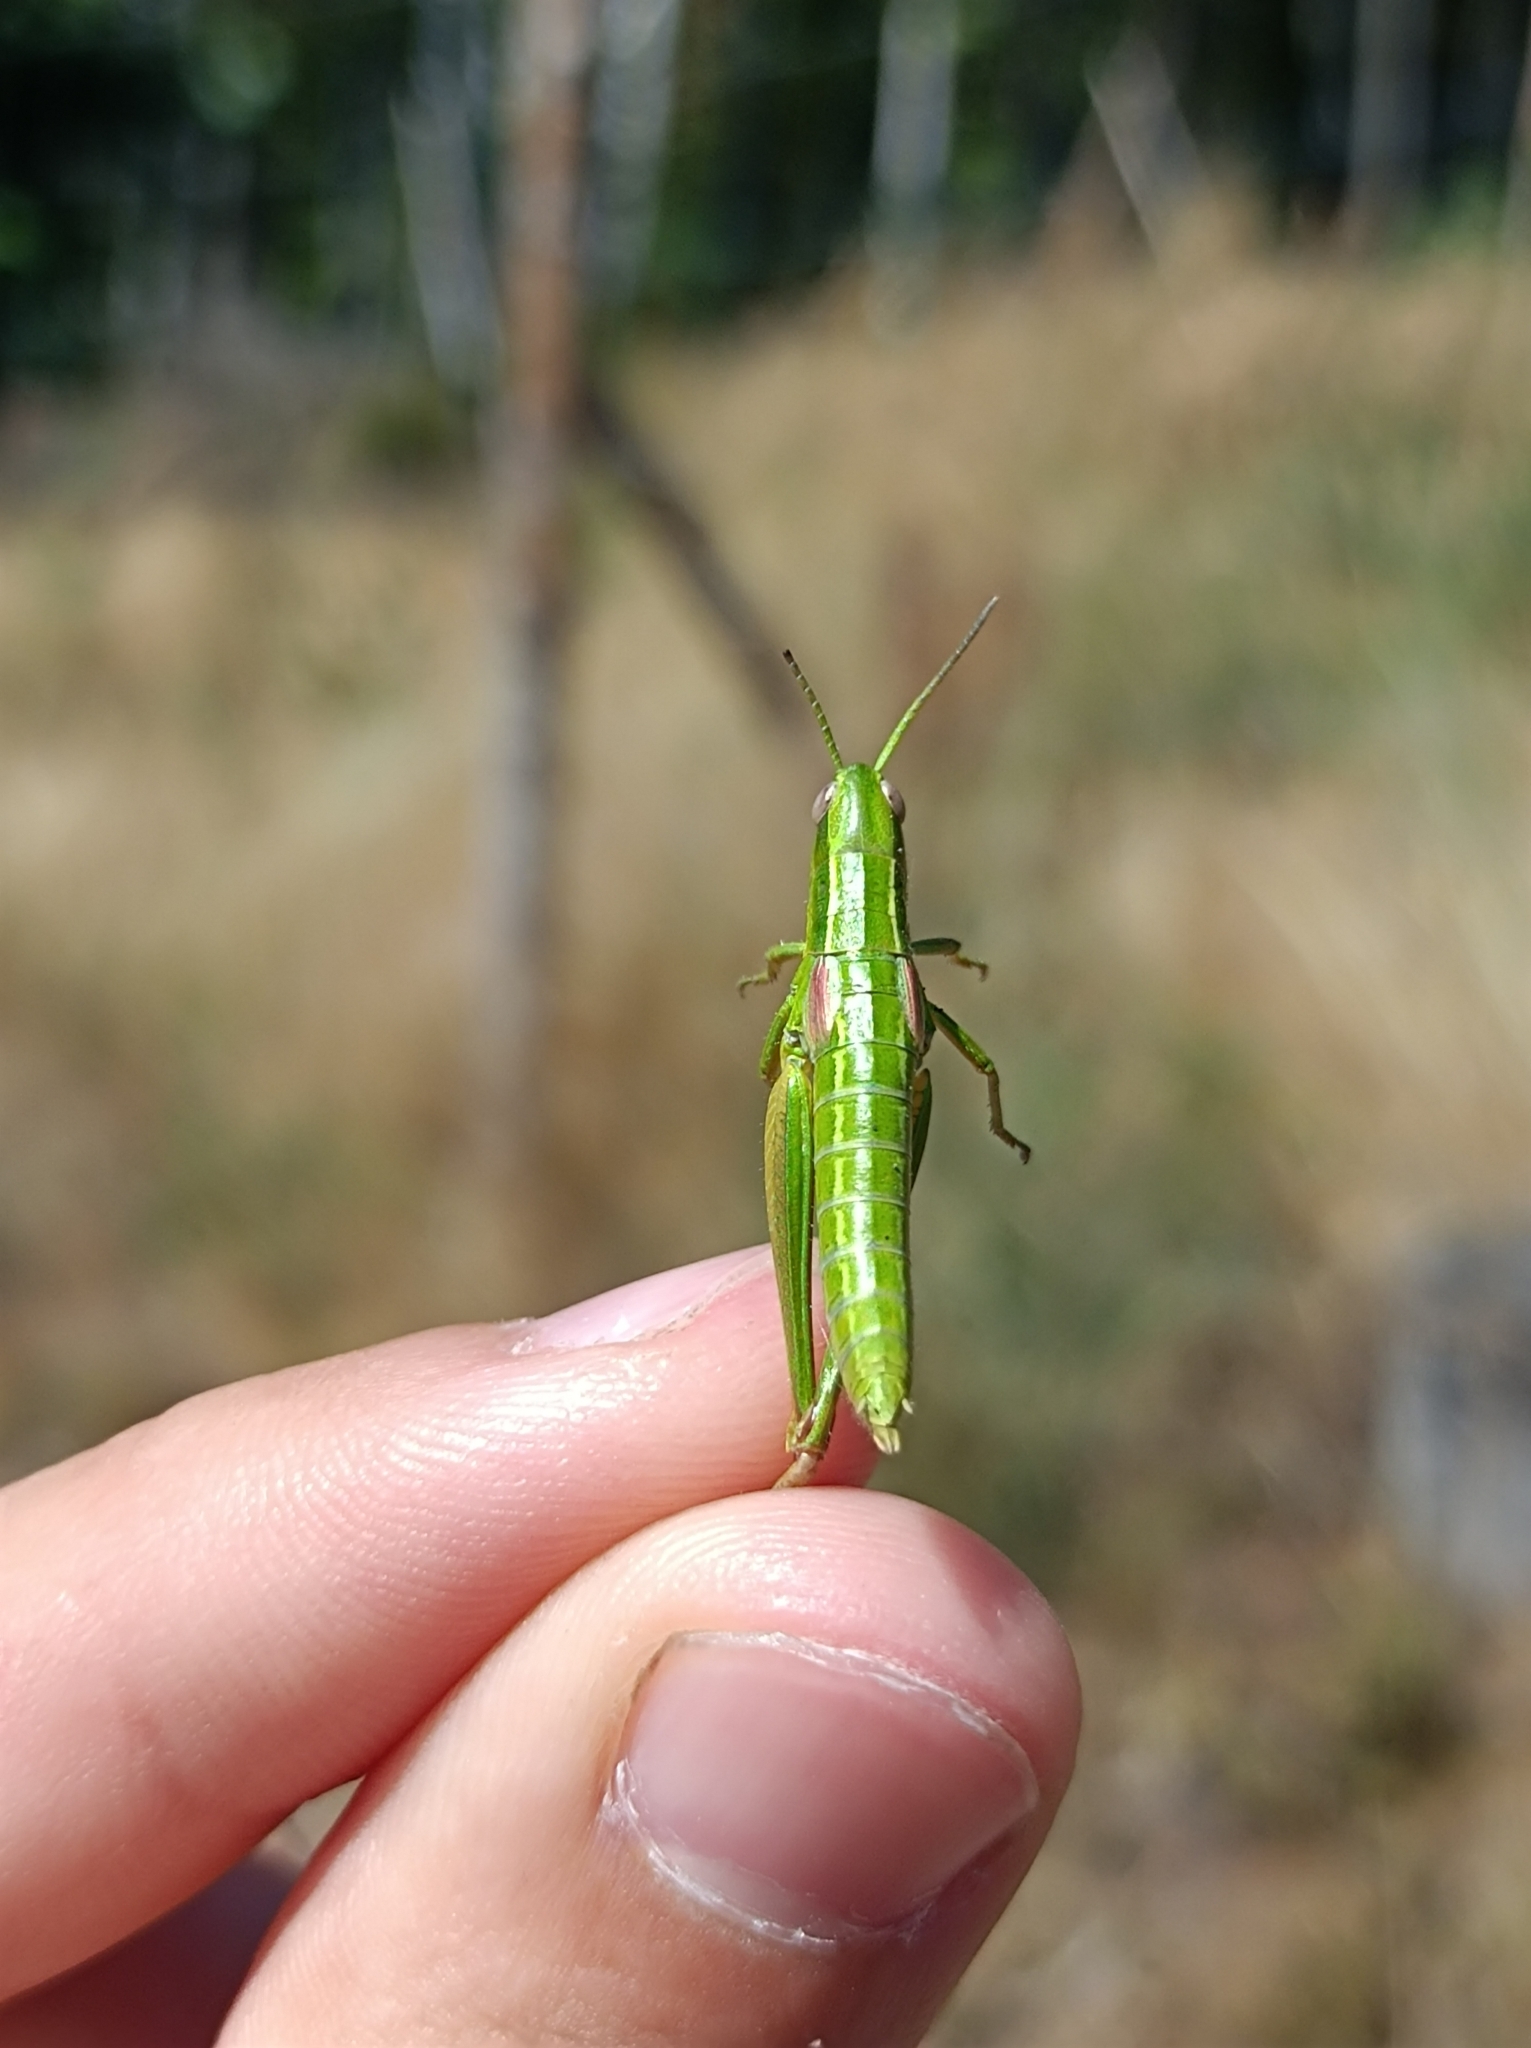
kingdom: Animalia
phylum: Arthropoda
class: Insecta
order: Orthoptera
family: Acrididae
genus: Euthystira
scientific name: Euthystira brachyptera
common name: Small gold grasshopper
